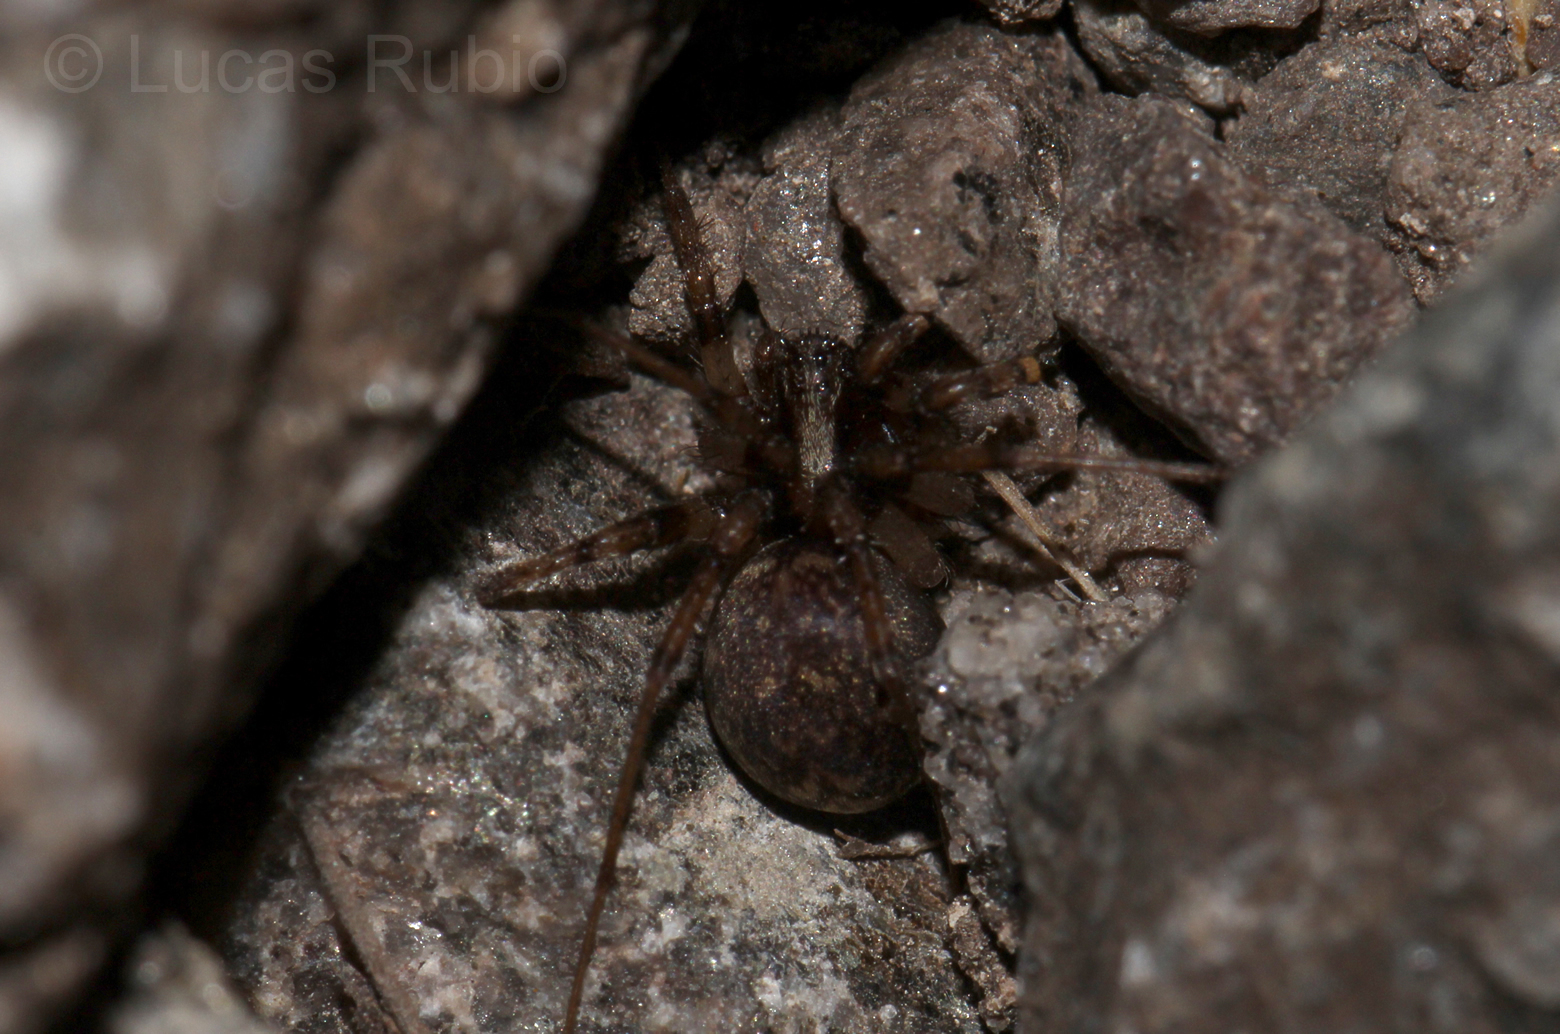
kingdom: Animalia
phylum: Arthropoda
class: Arachnida
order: Araneae
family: Zodariidae
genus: Leprolochus
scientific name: Leprolochus birabeni
